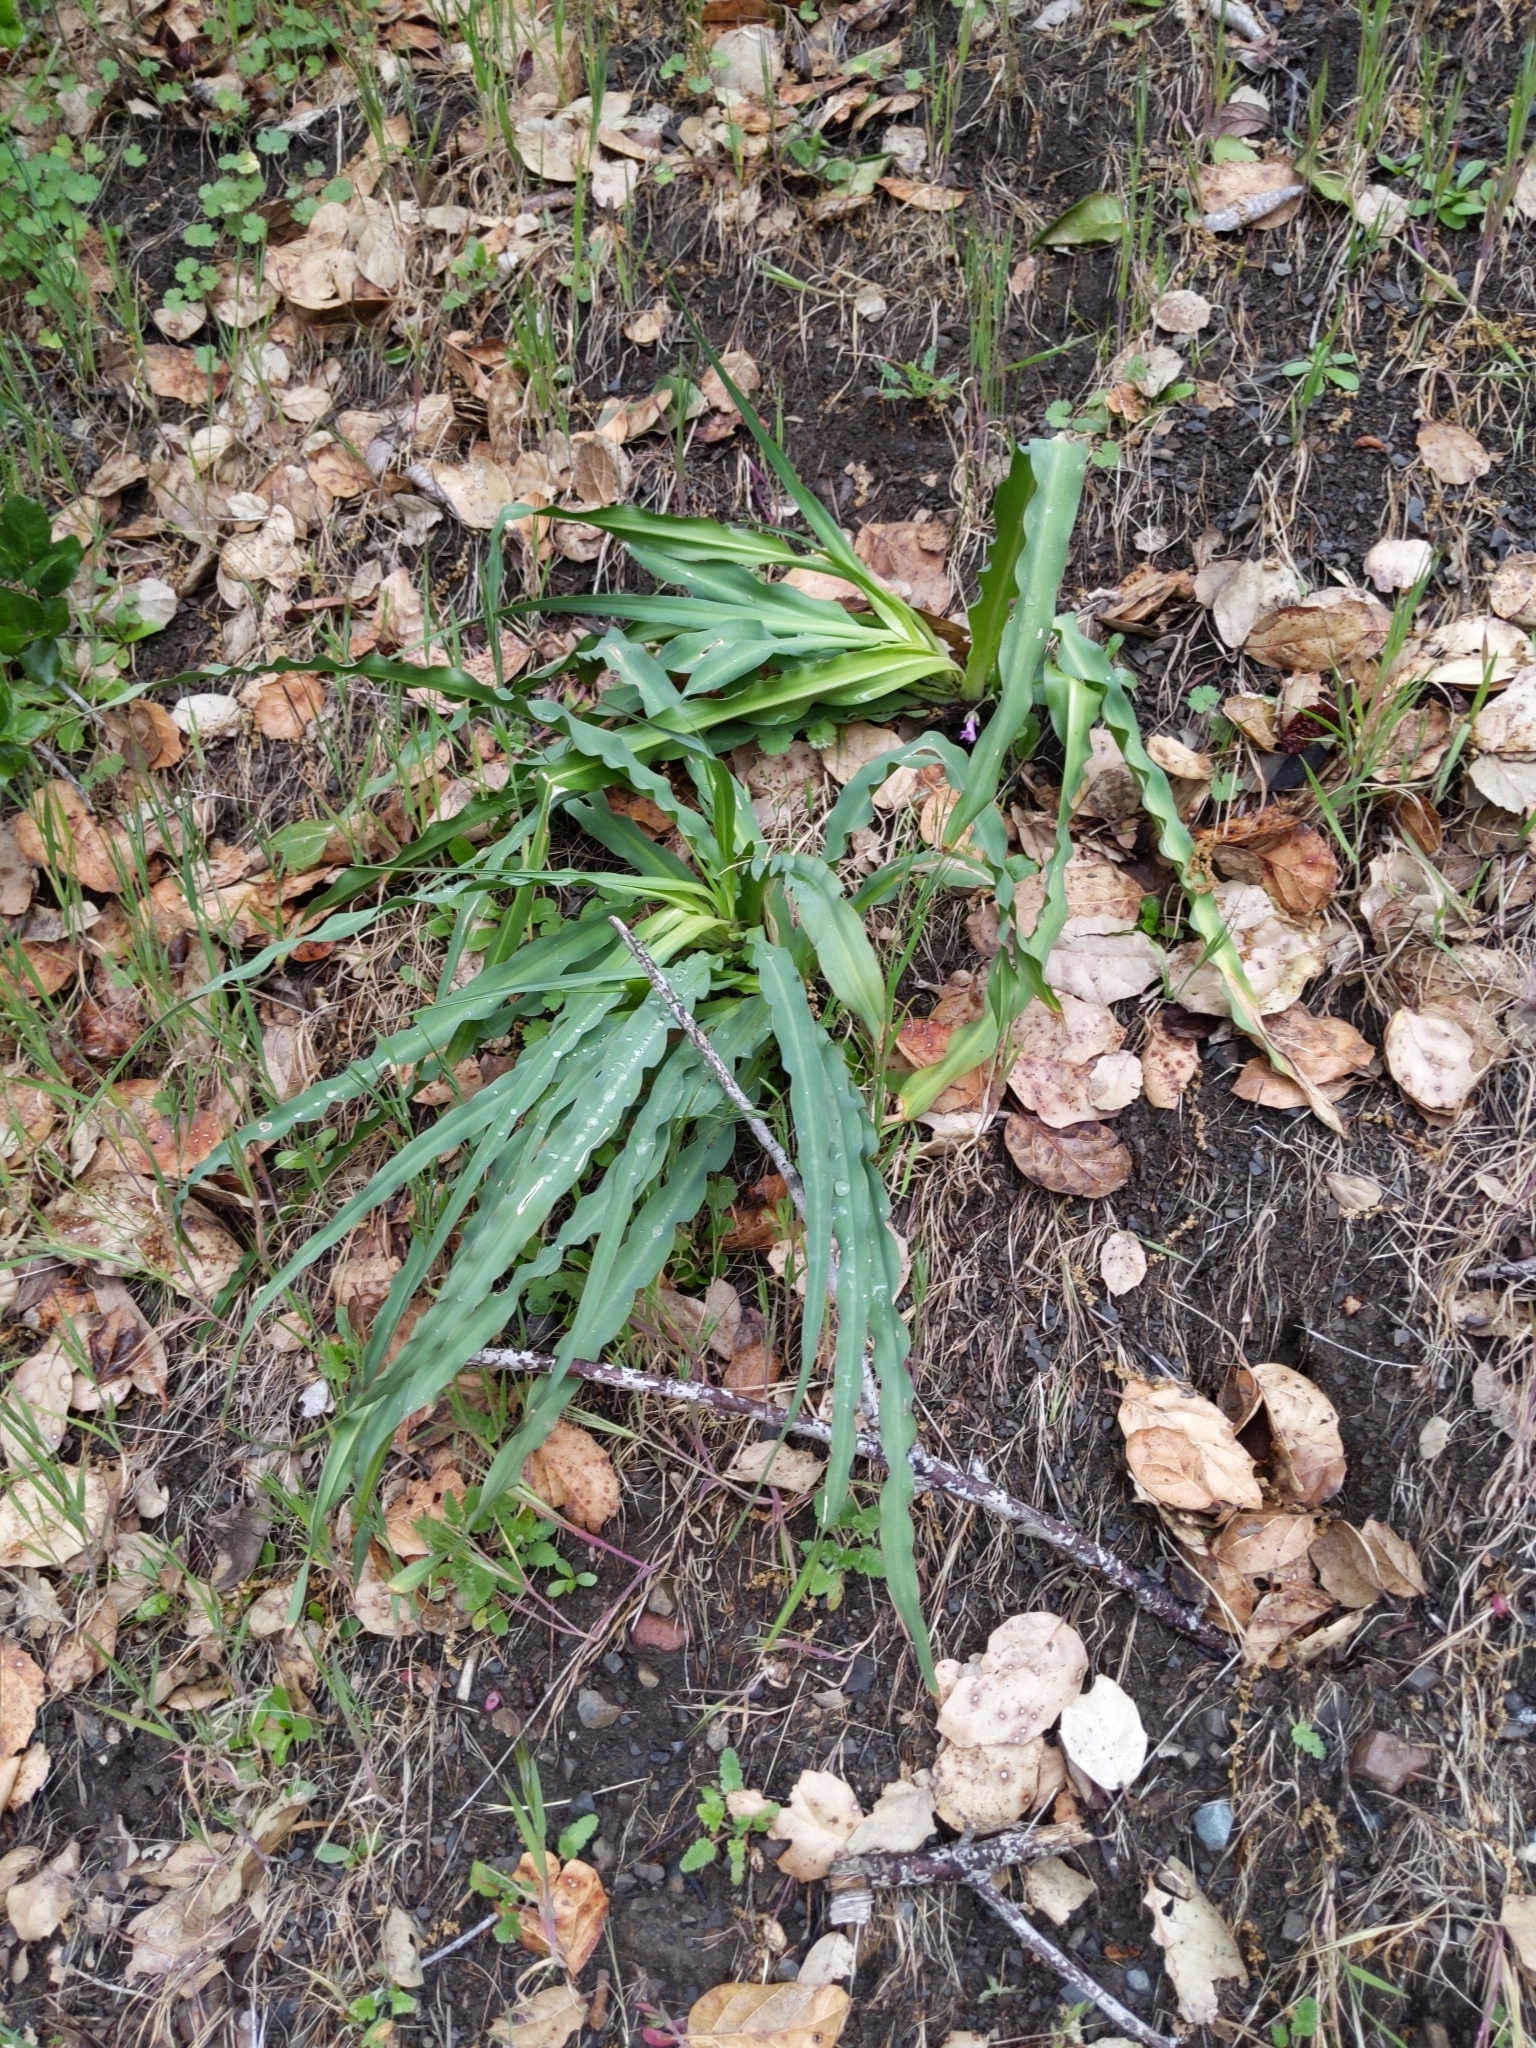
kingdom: Plantae
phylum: Tracheophyta
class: Liliopsida
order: Asparagales
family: Asparagaceae
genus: Chlorogalum
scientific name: Chlorogalum pomeridianum
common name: Amole
